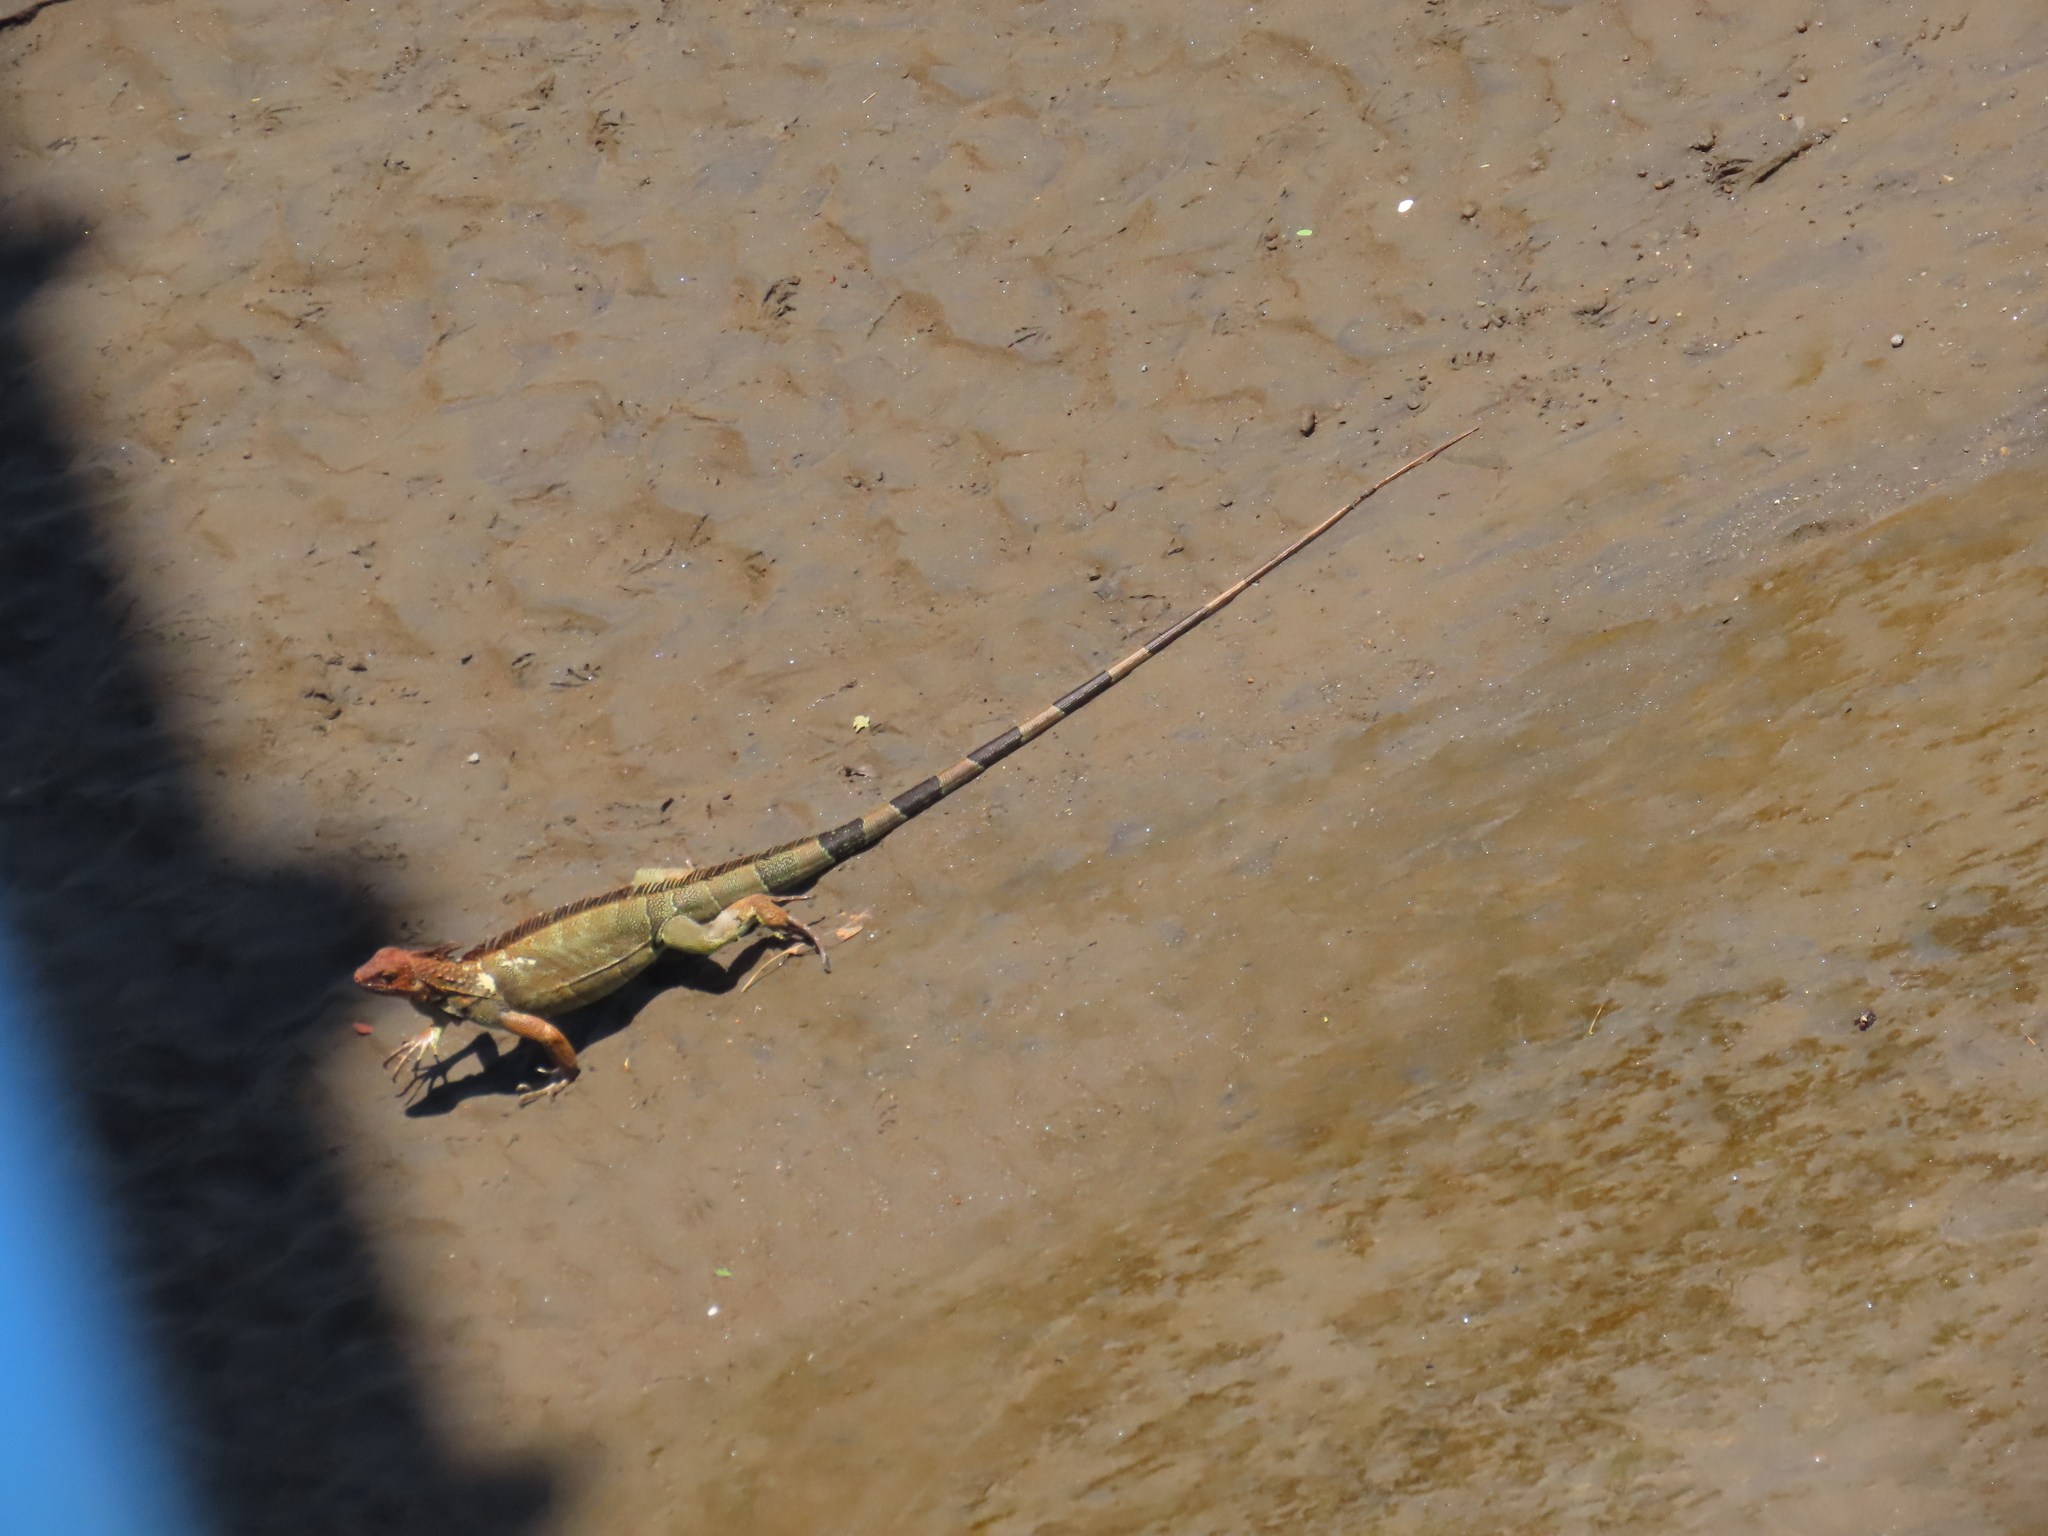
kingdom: Animalia
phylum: Chordata
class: Squamata
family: Iguanidae
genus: Iguana
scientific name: Iguana iguana
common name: Green iguana
